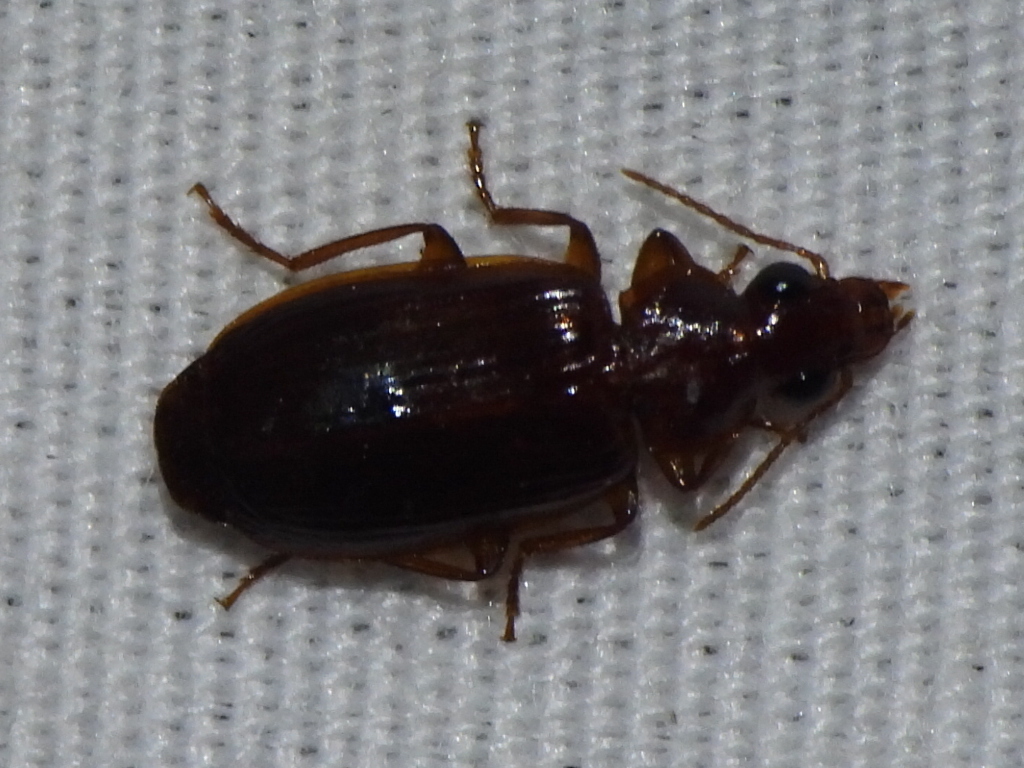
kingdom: Animalia
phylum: Arthropoda
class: Insecta
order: Coleoptera
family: Carabidae
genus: Plochionus
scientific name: Plochionus timidus
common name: Timid harp ground beetle
